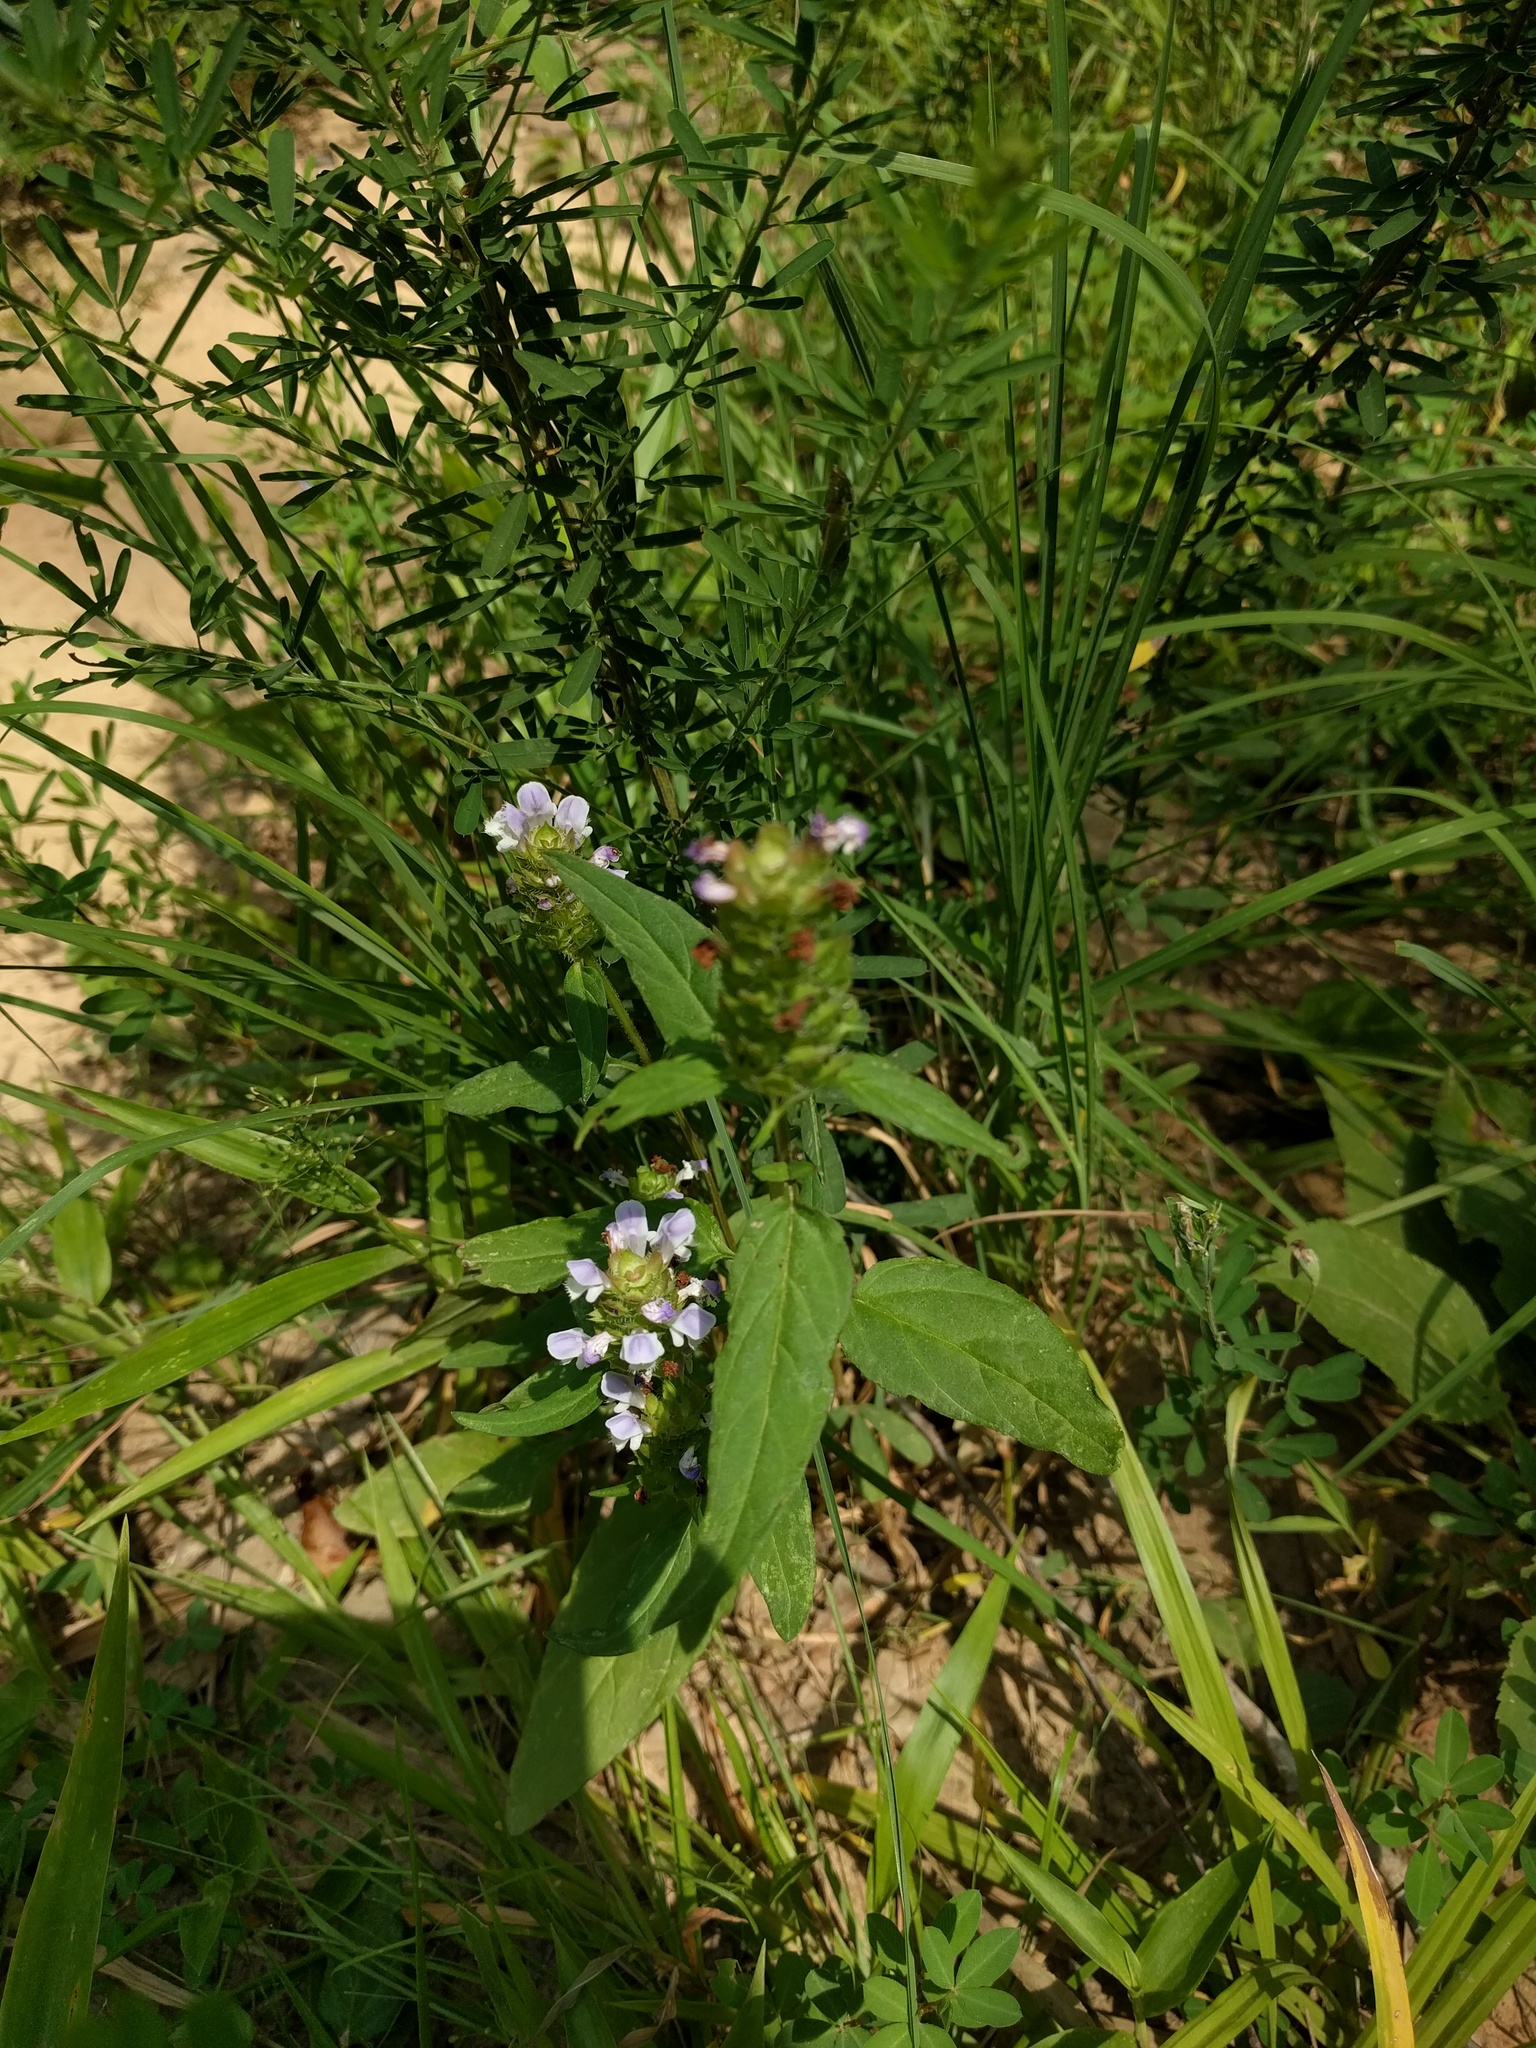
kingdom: Plantae
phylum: Tracheophyta
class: Magnoliopsida
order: Lamiales
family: Lamiaceae
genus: Prunella
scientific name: Prunella vulgaris
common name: Heal-all
